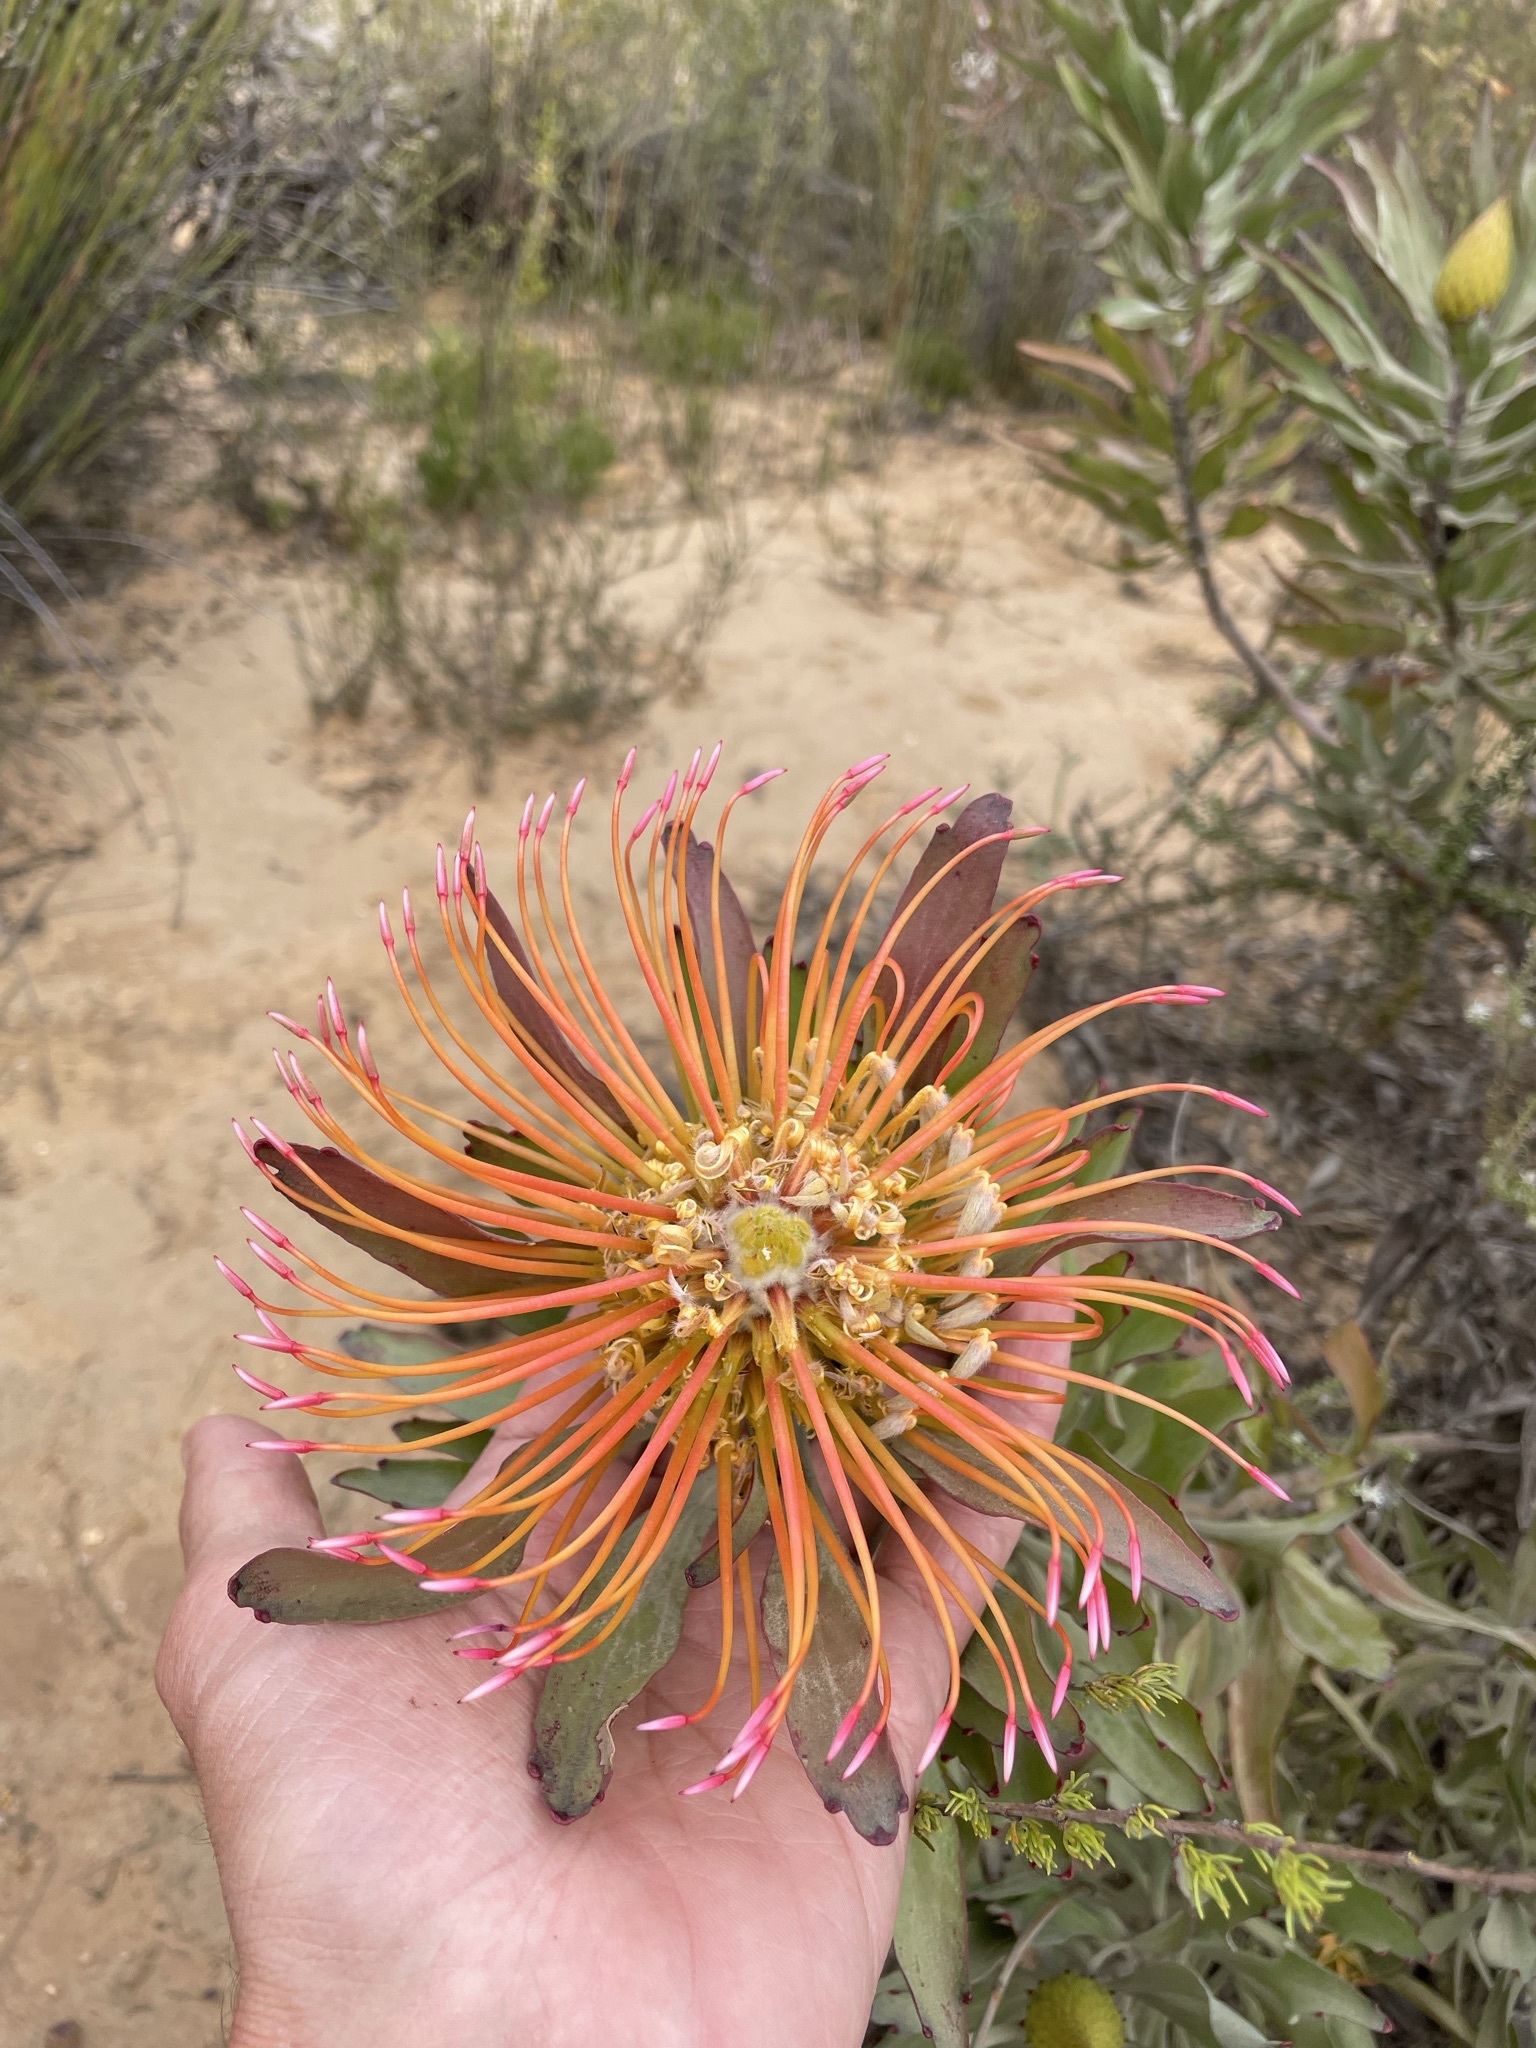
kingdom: Plantae
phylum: Tracheophyta
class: Magnoliopsida
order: Proteales
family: Proteaceae
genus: Leucospermum
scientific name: Leucospermum catherinae
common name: Catherine-wheel pincushion
